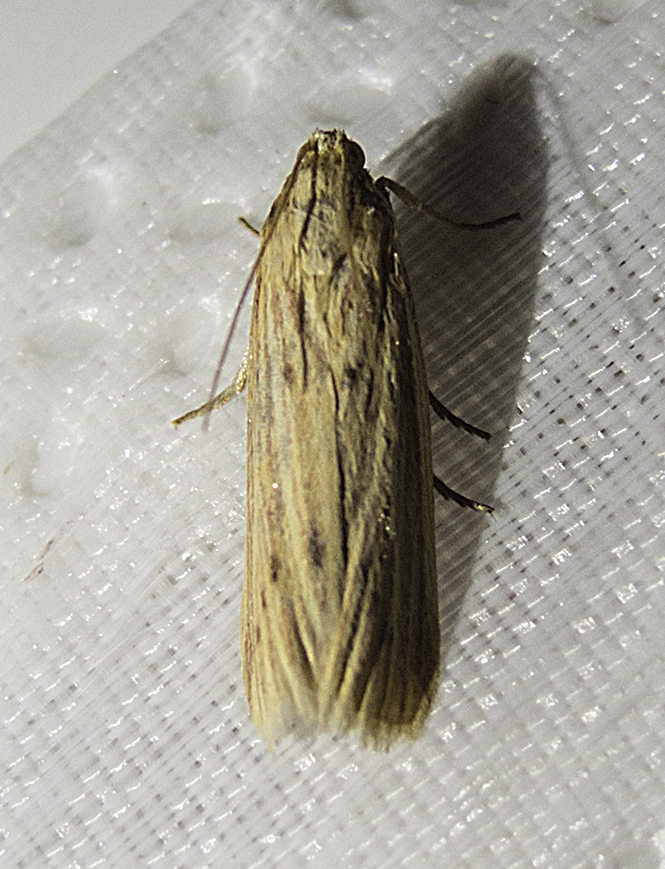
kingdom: Animalia
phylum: Arthropoda
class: Insecta
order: Lepidoptera
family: Pyralidae
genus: Ematheudes
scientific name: Ematheudes punctellus
